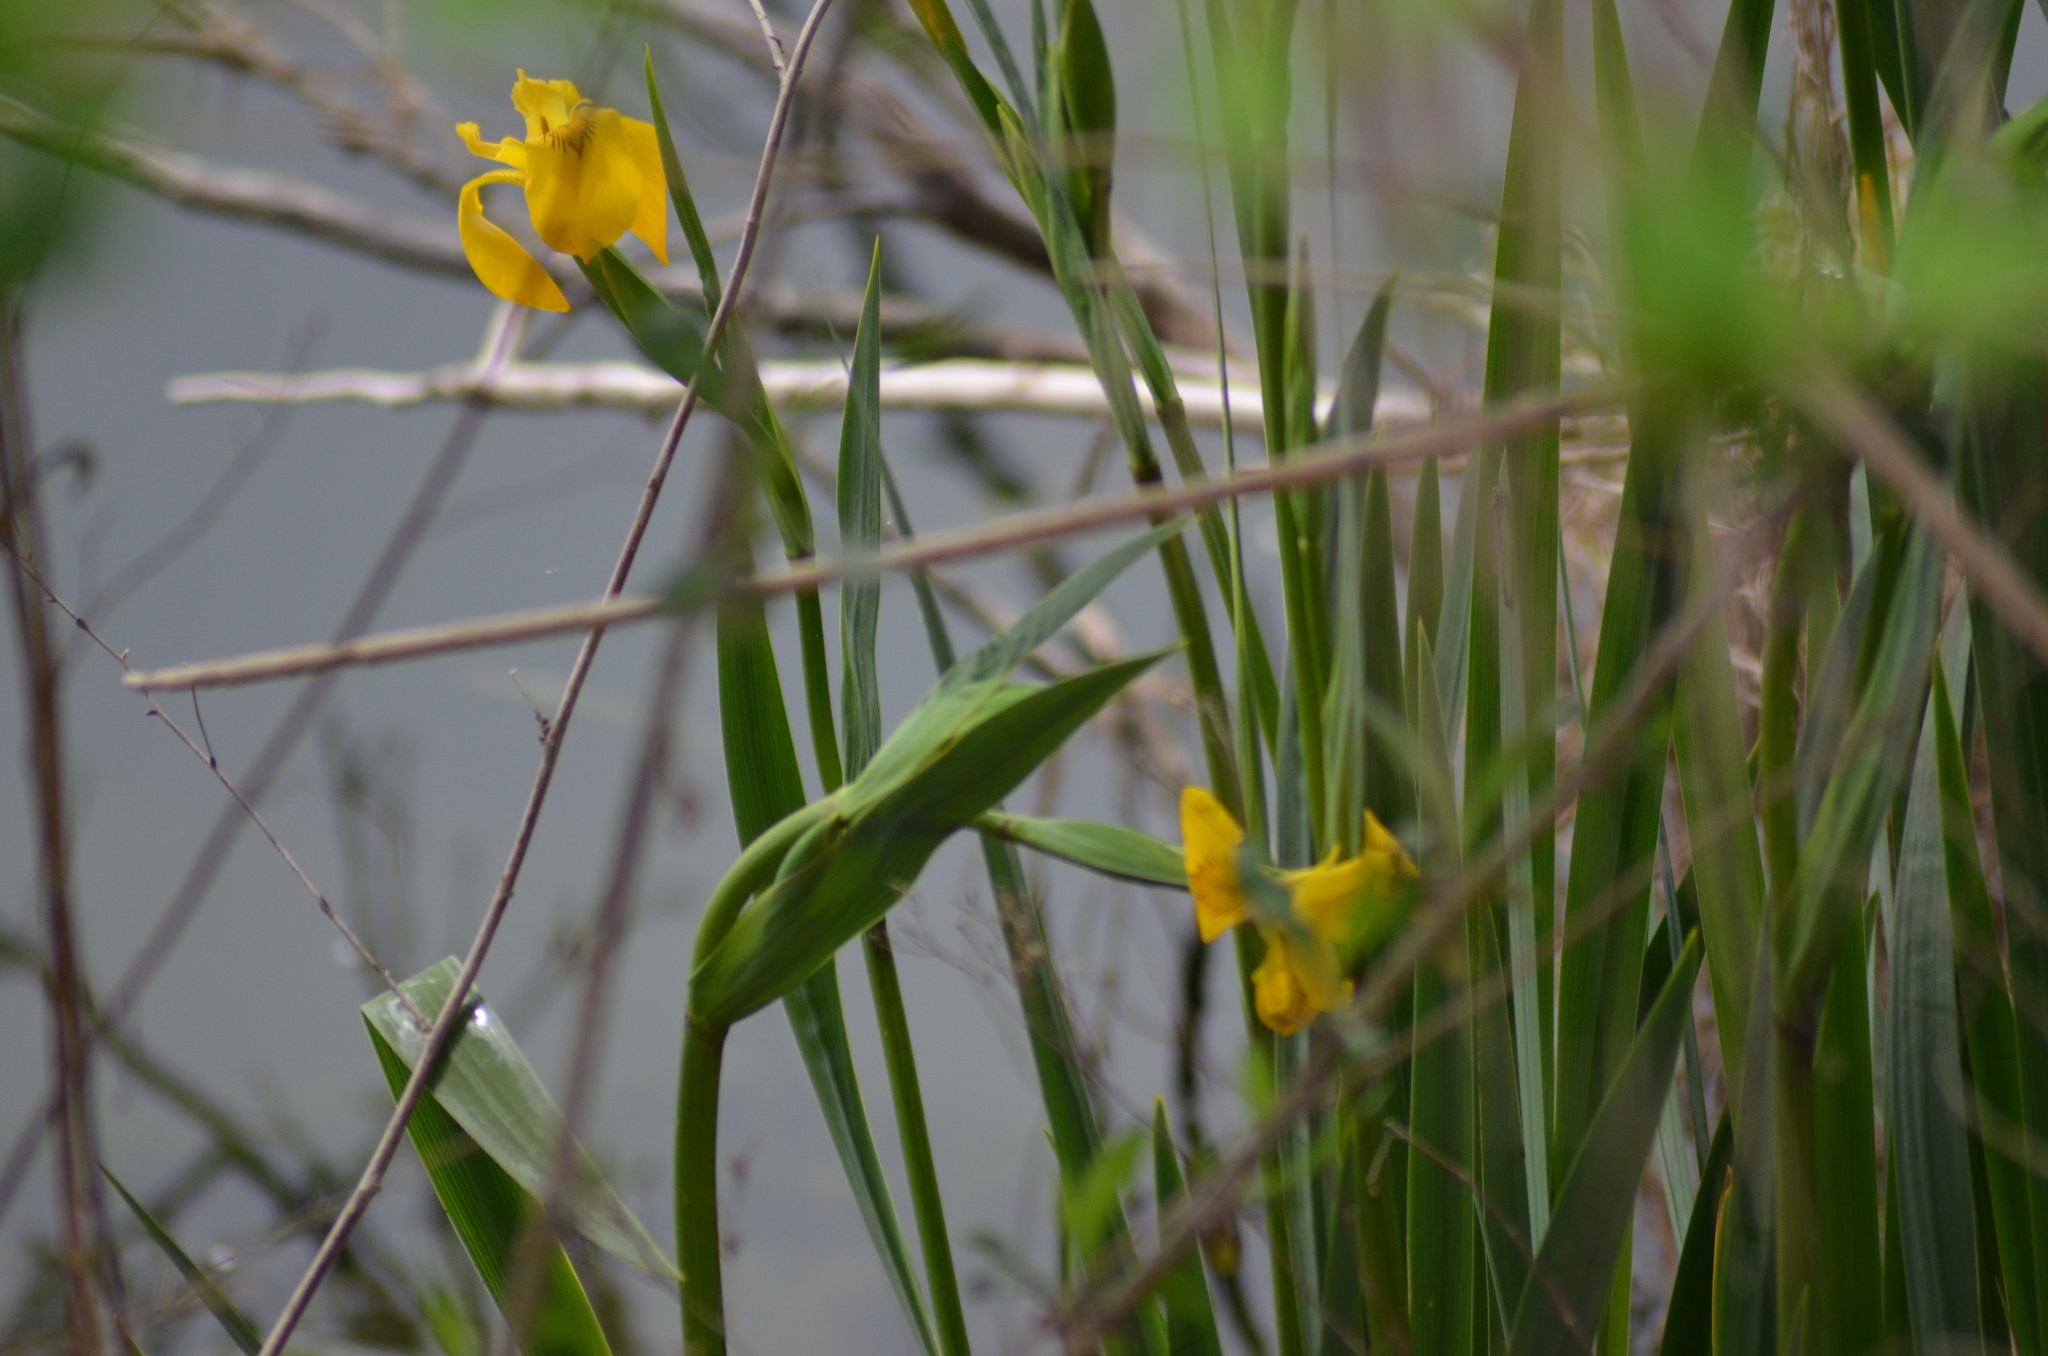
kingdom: Plantae
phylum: Tracheophyta
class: Liliopsida
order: Asparagales
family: Iridaceae
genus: Iris
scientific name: Iris pseudacorus
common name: Yellow flag
